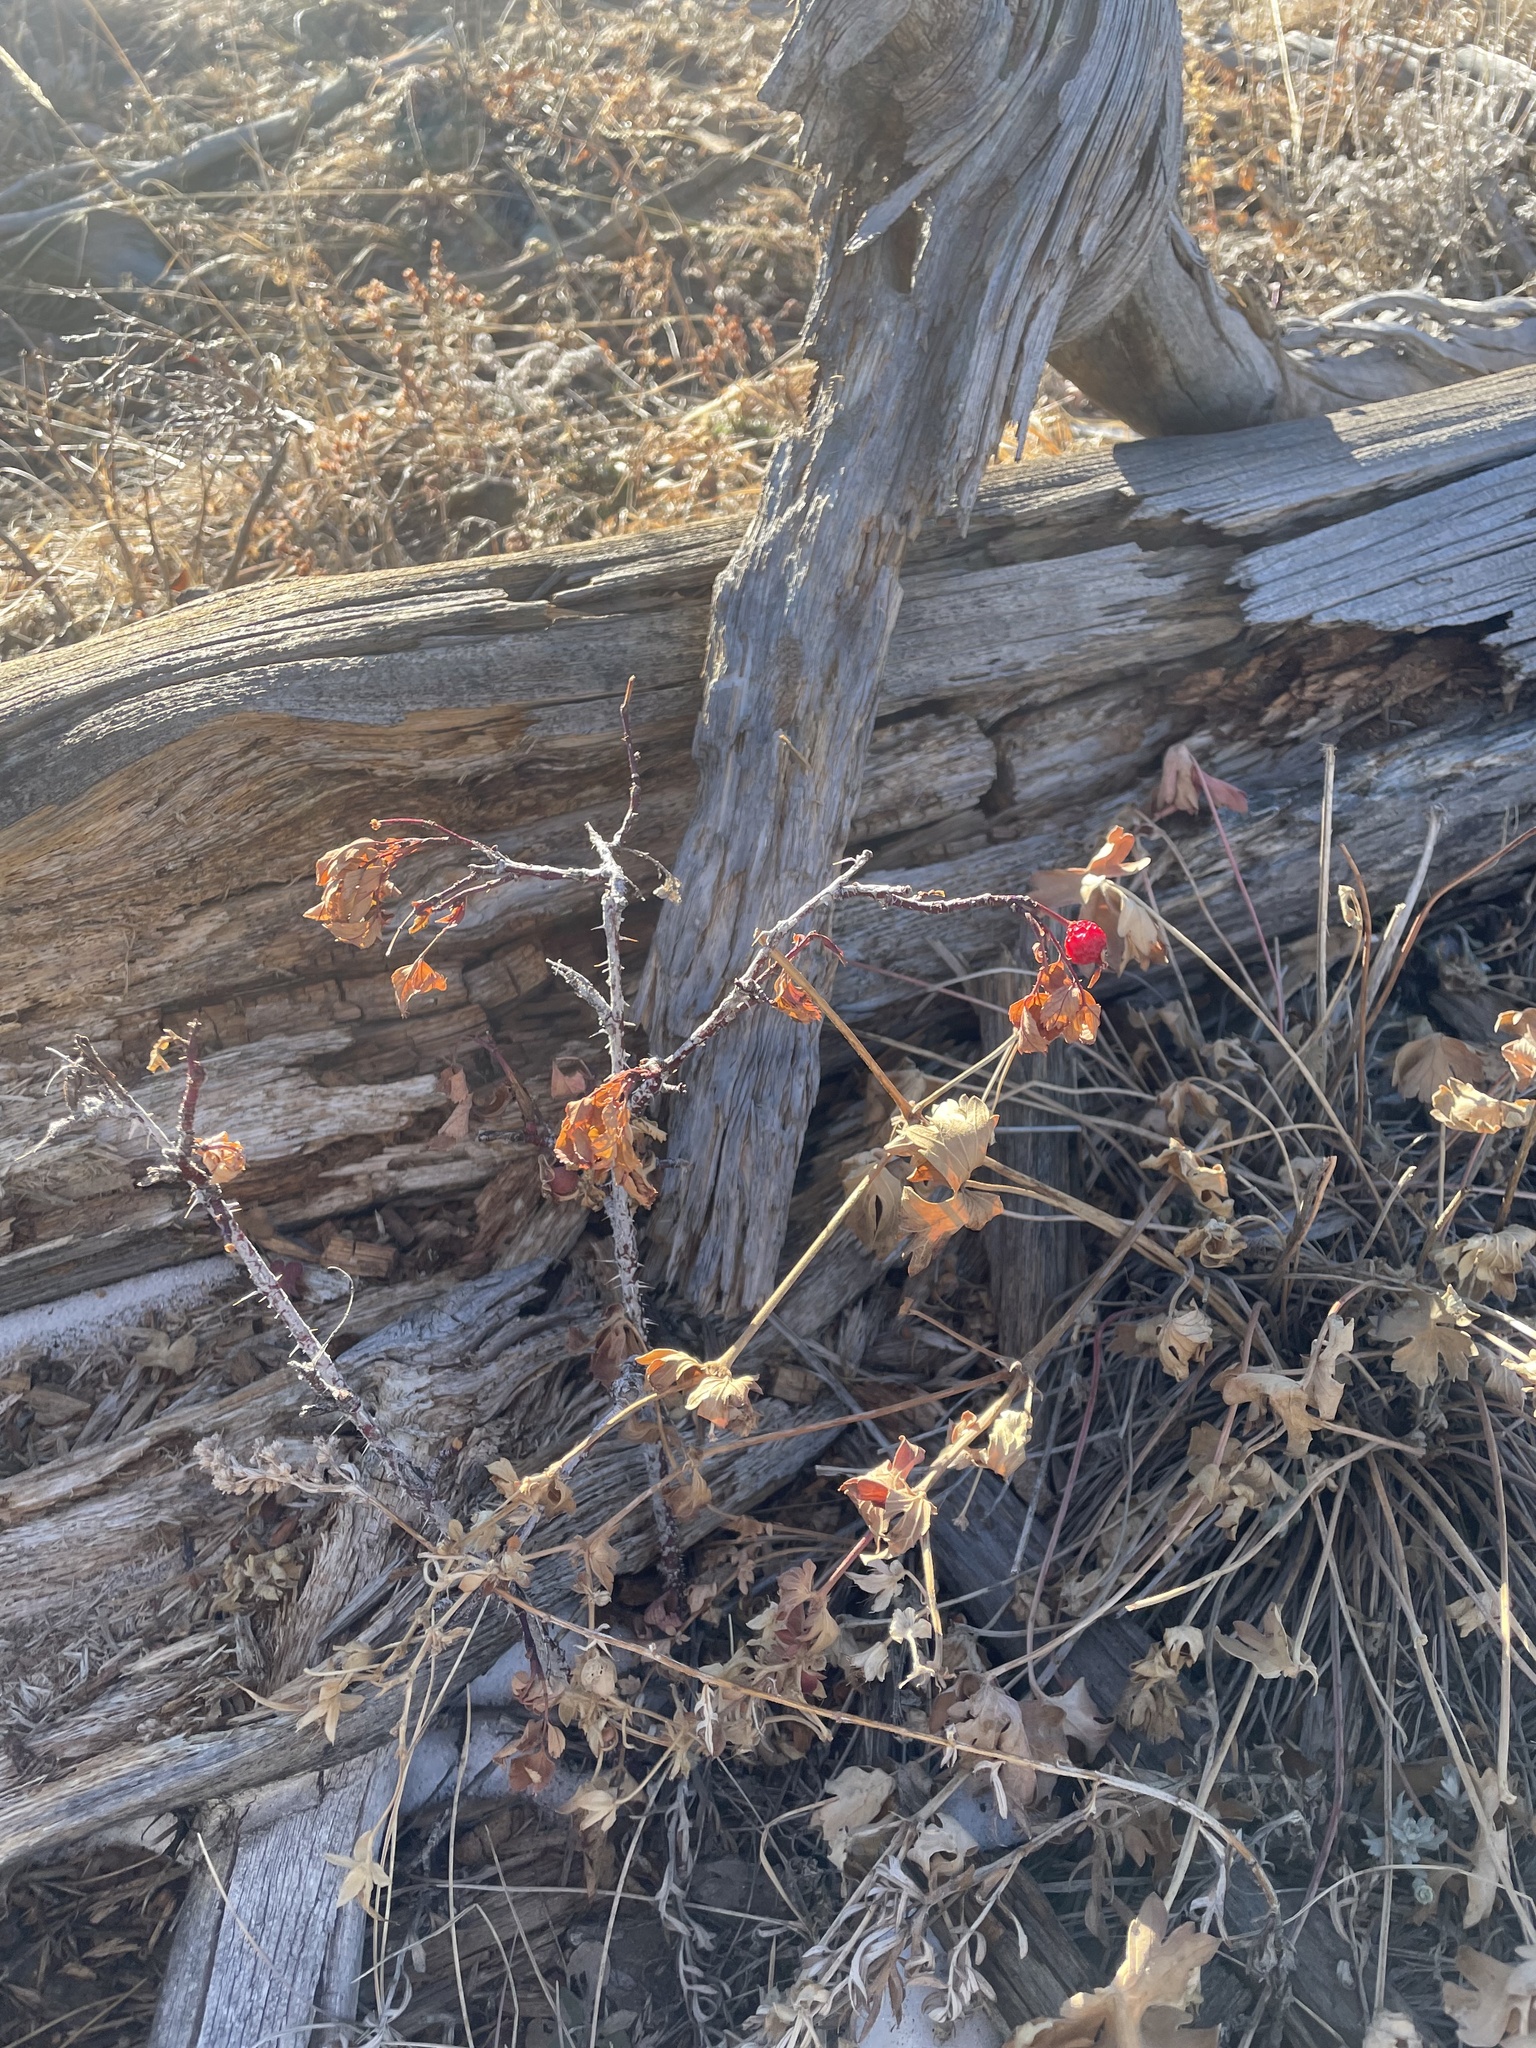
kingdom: Plantae
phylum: Tracheophyta
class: Magnoliopsida
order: Rosales
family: Rosaceae
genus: Rosa
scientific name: Rosa woodsii
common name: Woods's rose
